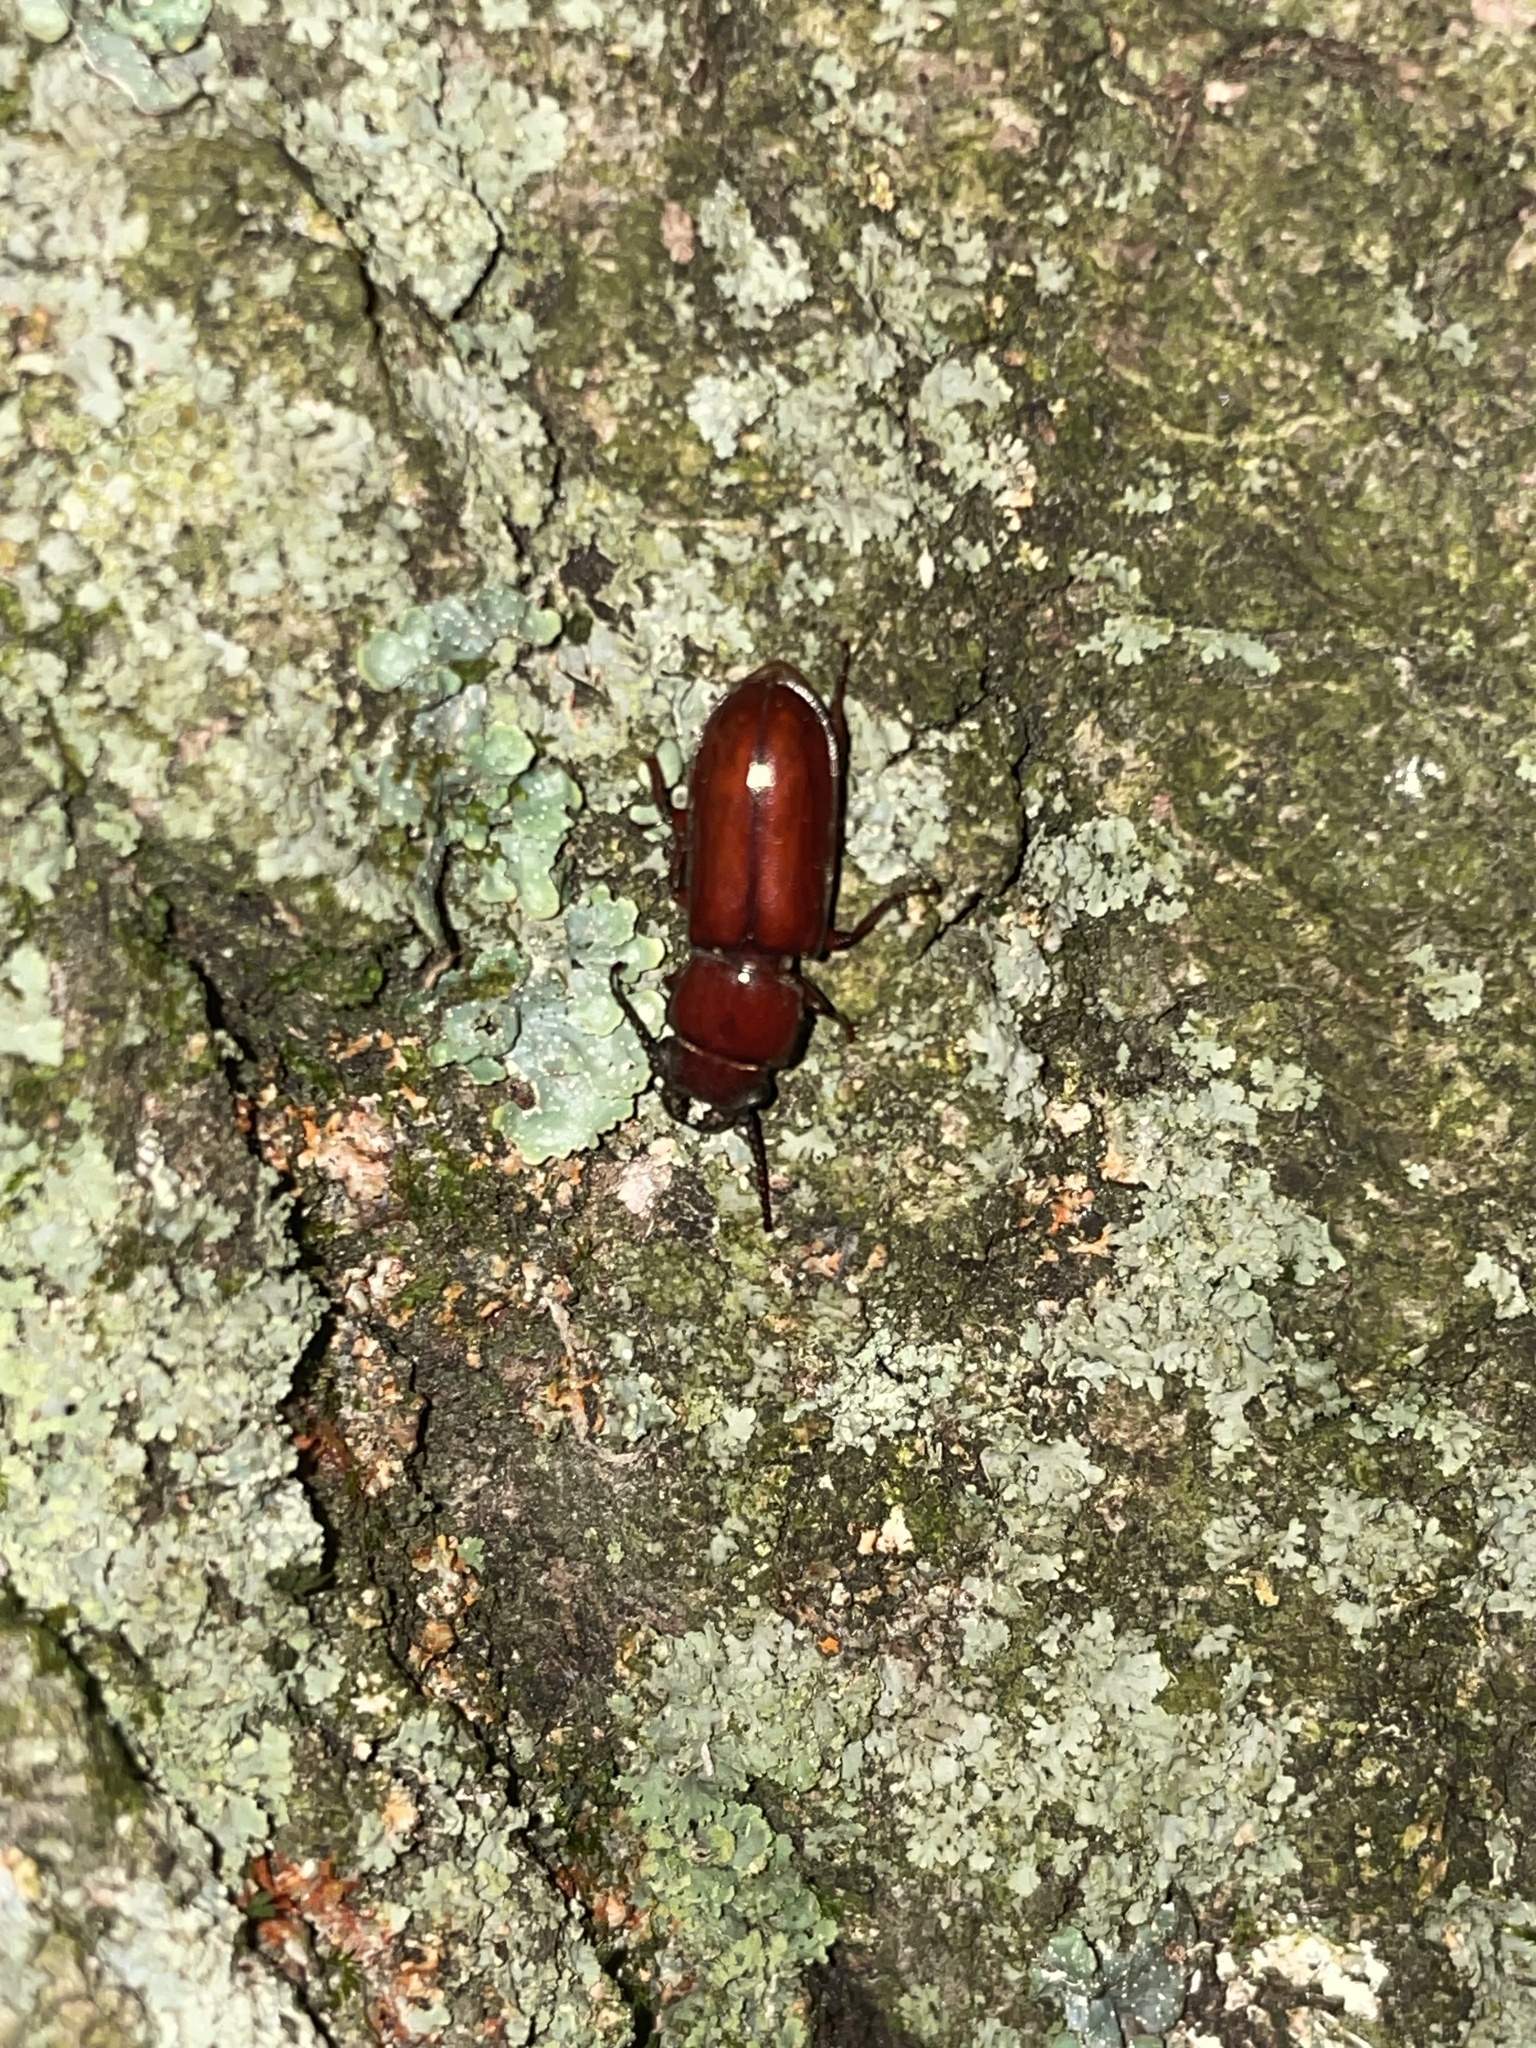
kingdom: Animalia
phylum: Arthropoda
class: Insecta
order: Coleoptera
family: Cerambycidae
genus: Neandra
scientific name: Neandra brunnea
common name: Pole borer
